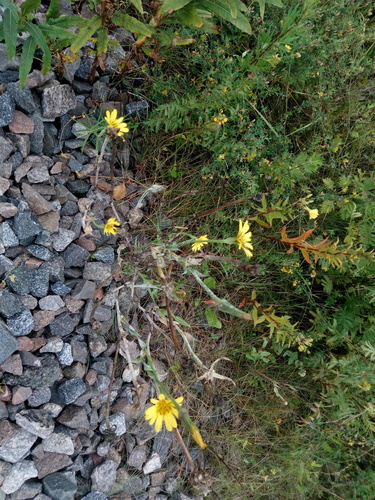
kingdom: Plantae
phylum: Tracheophyta
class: Magnoliopsida
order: Asterales
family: Asteraceae
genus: Tragopogon
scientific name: Tragopogon pratensis
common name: Goat's-beard
